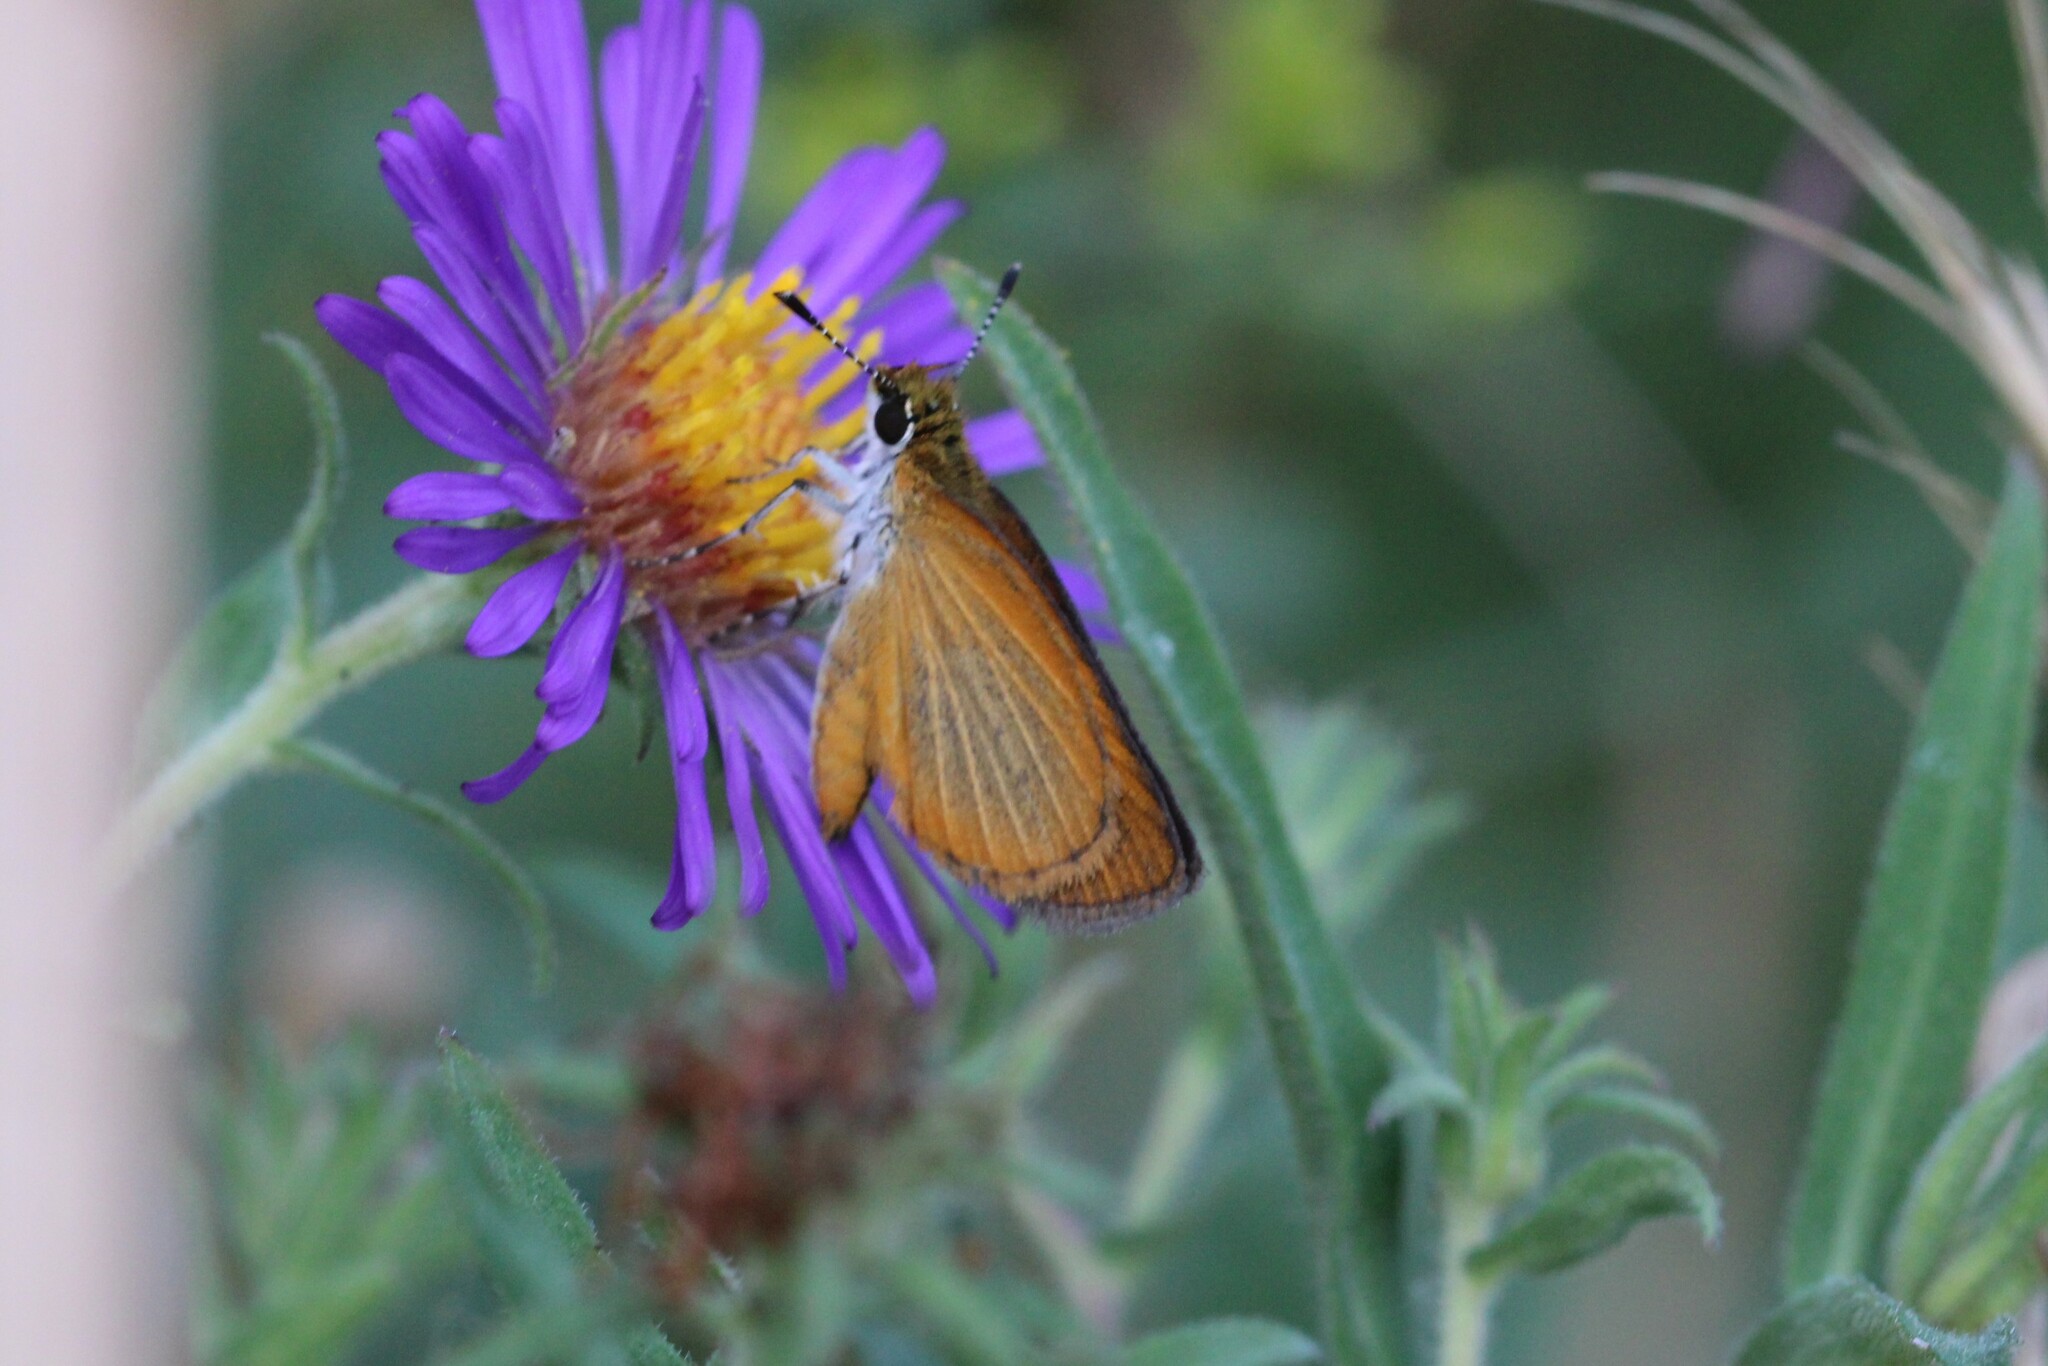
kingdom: Animalia
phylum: Arthropoda
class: Insecta
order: Lepidoptera
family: Hesperiidae
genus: Ancyloxypha
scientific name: Ancyloxypha numitor
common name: Least skipper
